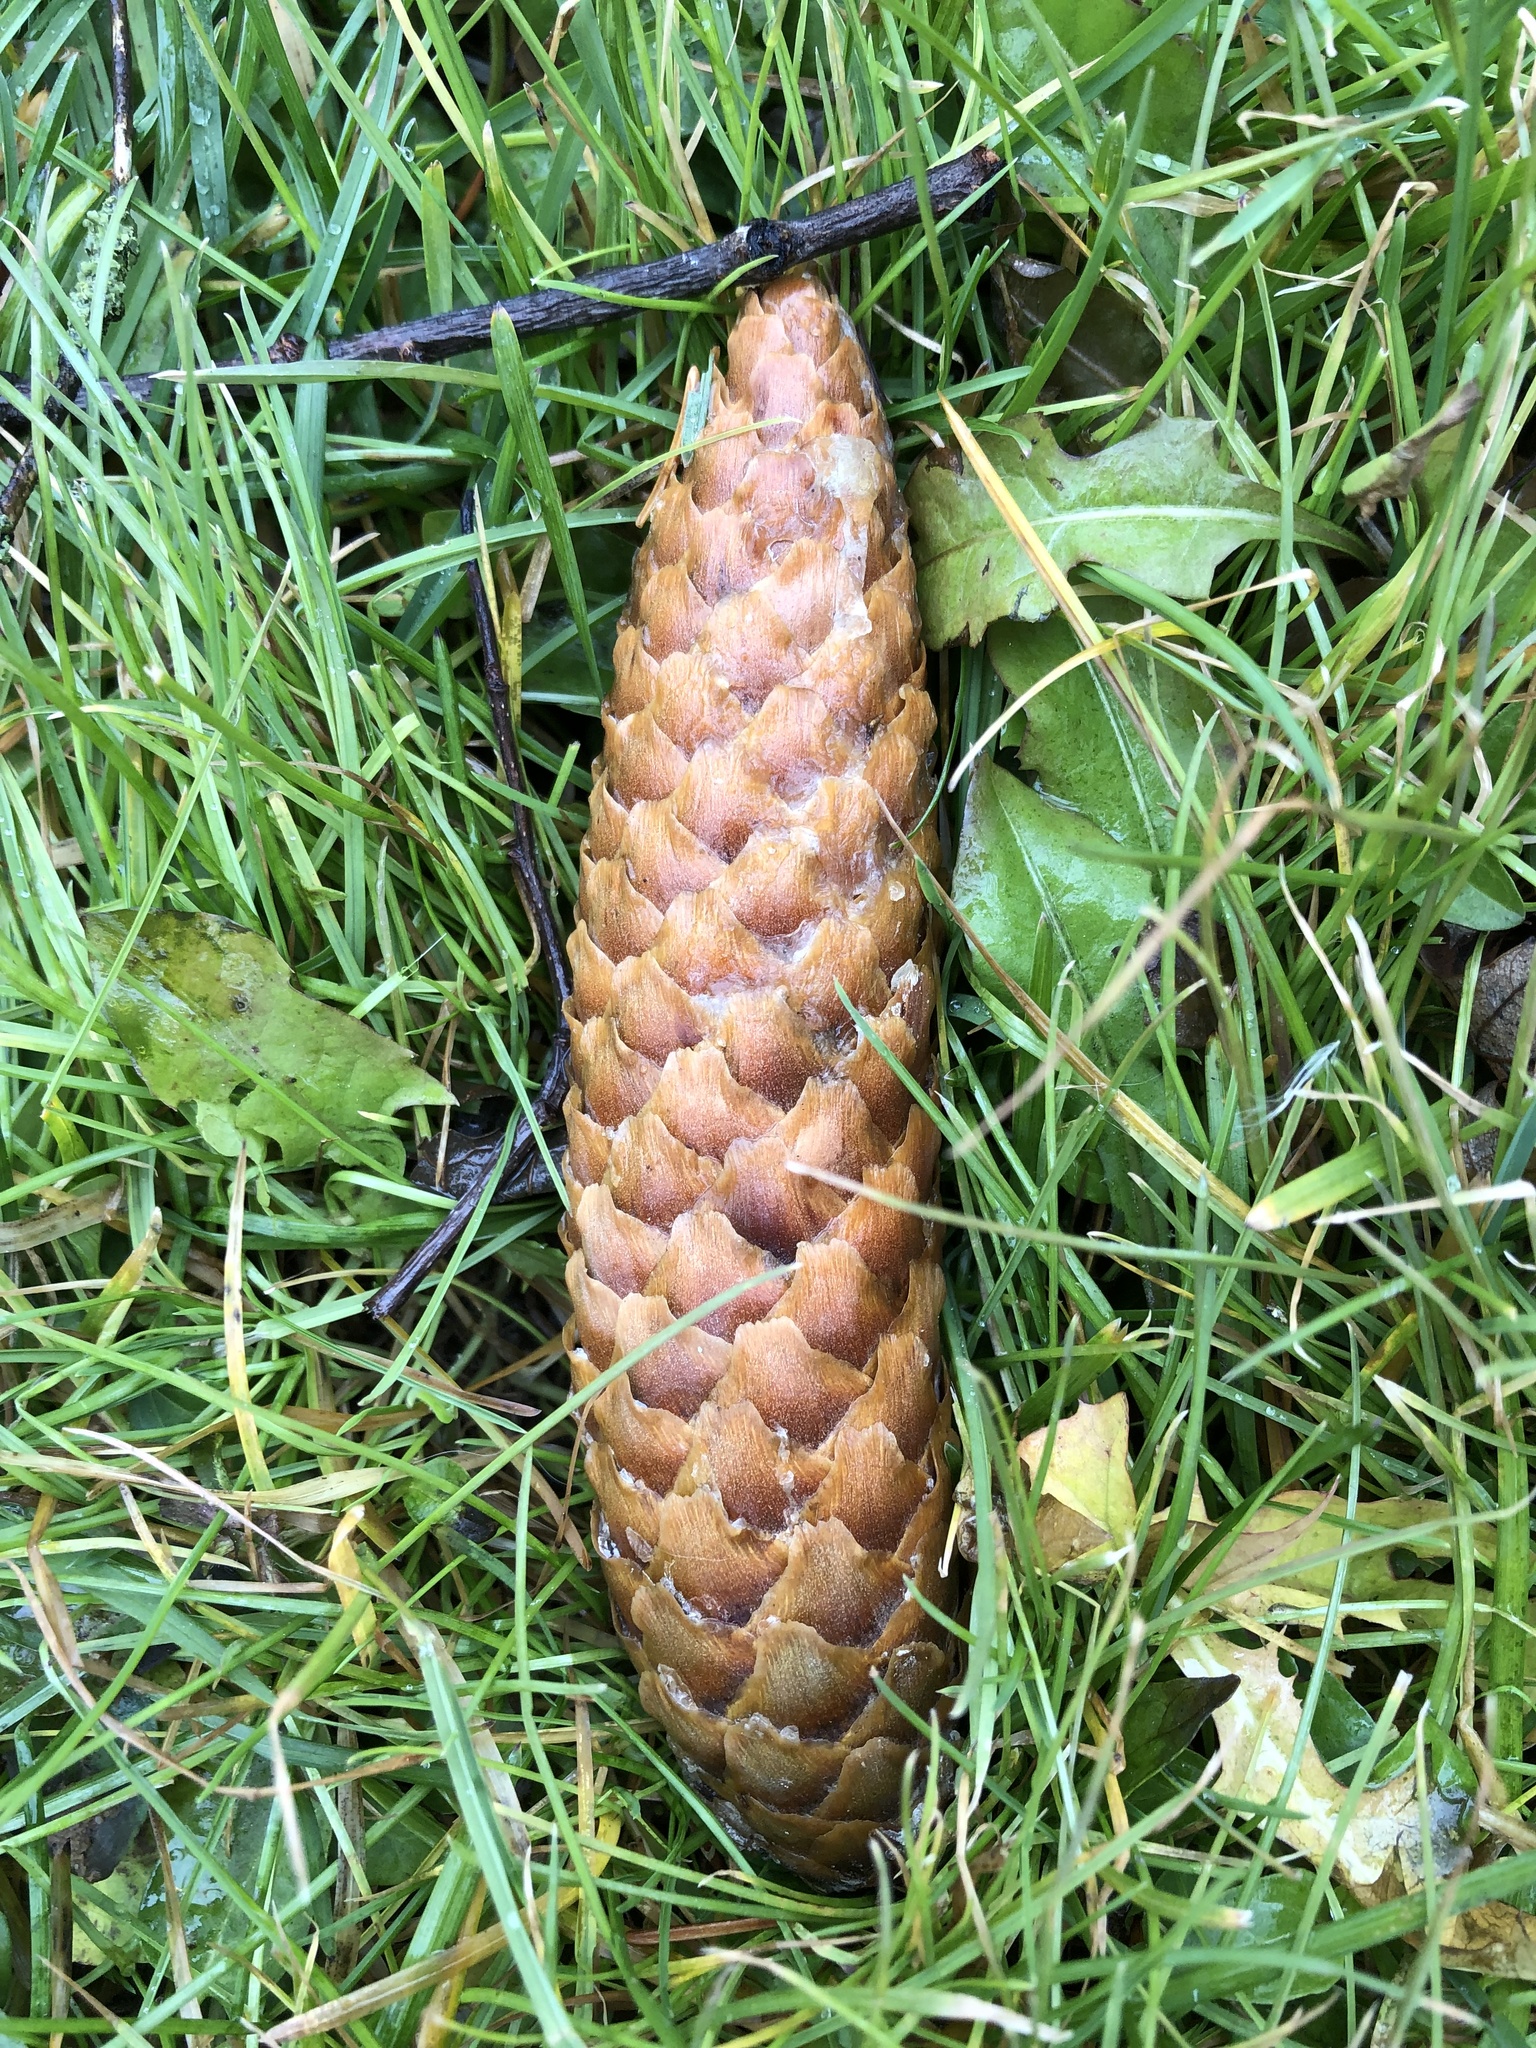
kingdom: Plantae
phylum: Tracheophyta
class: Pinopsida
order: Pinales
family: Pinaceae
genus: Picea
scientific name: Picea abies
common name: Norway spruce
